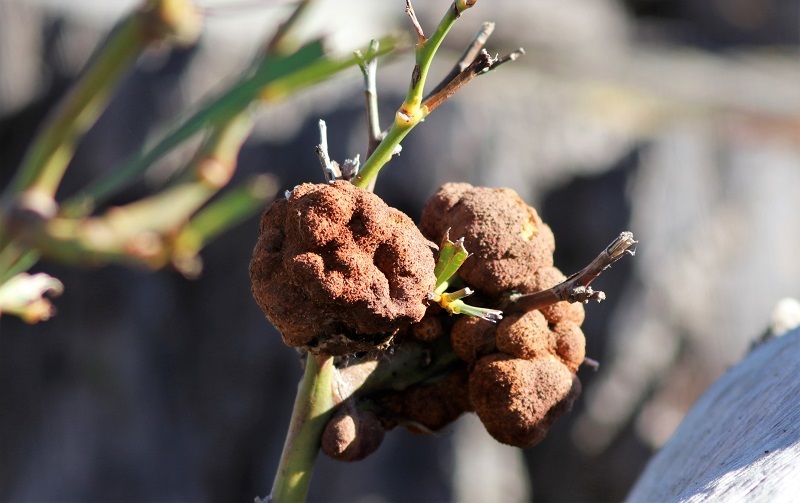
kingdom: Fungi
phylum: Basidiomycota
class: Pucciniomycetes
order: Pucciniales
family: Uromycladiaceae
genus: Uromycladium
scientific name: Uromycladium morrisii
